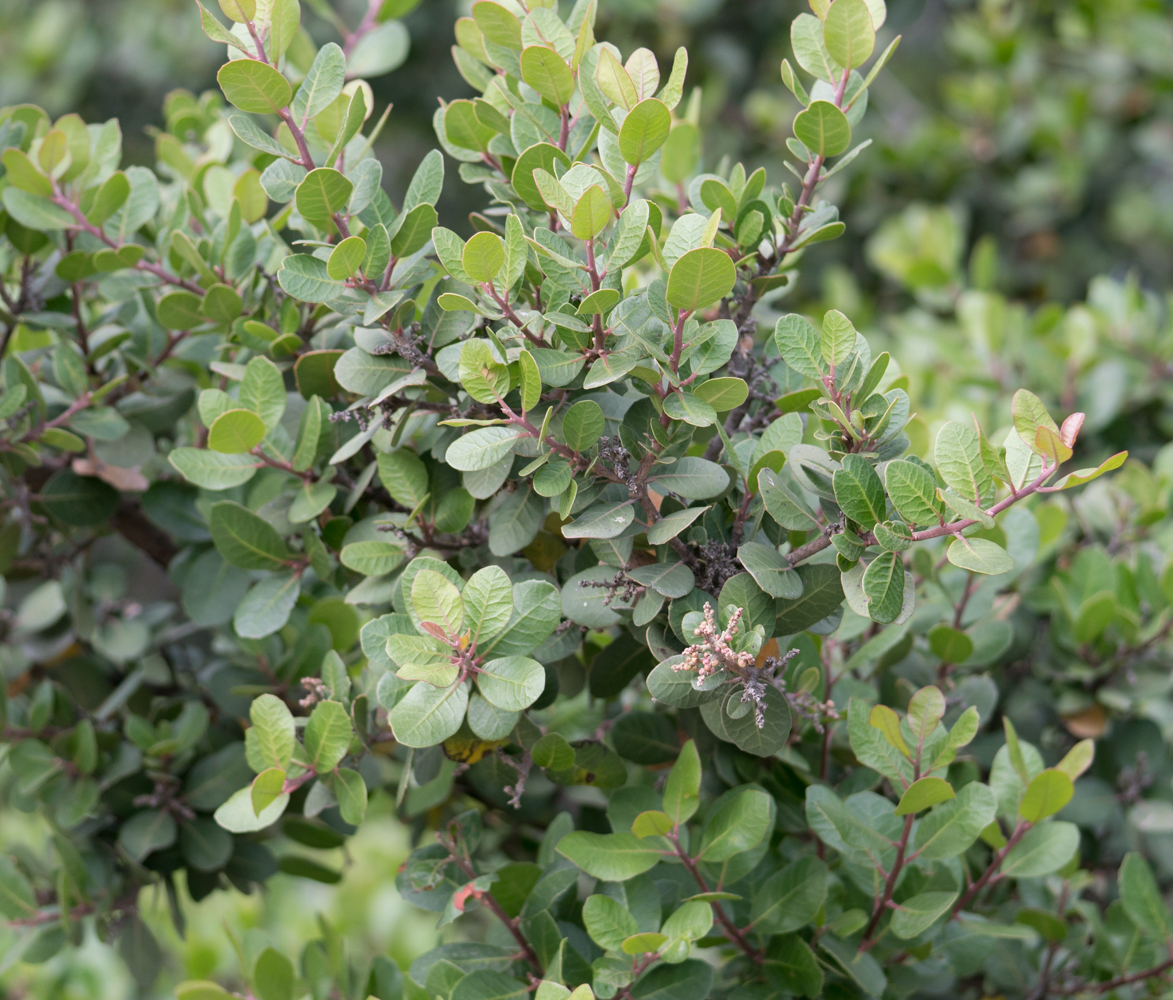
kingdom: Plantae
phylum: Tracheophyta
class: Magnoliopsida
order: Sapindales
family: Anacardiaceae
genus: Rhus
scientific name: Rhus integrifolia
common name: Lemonade sumac
